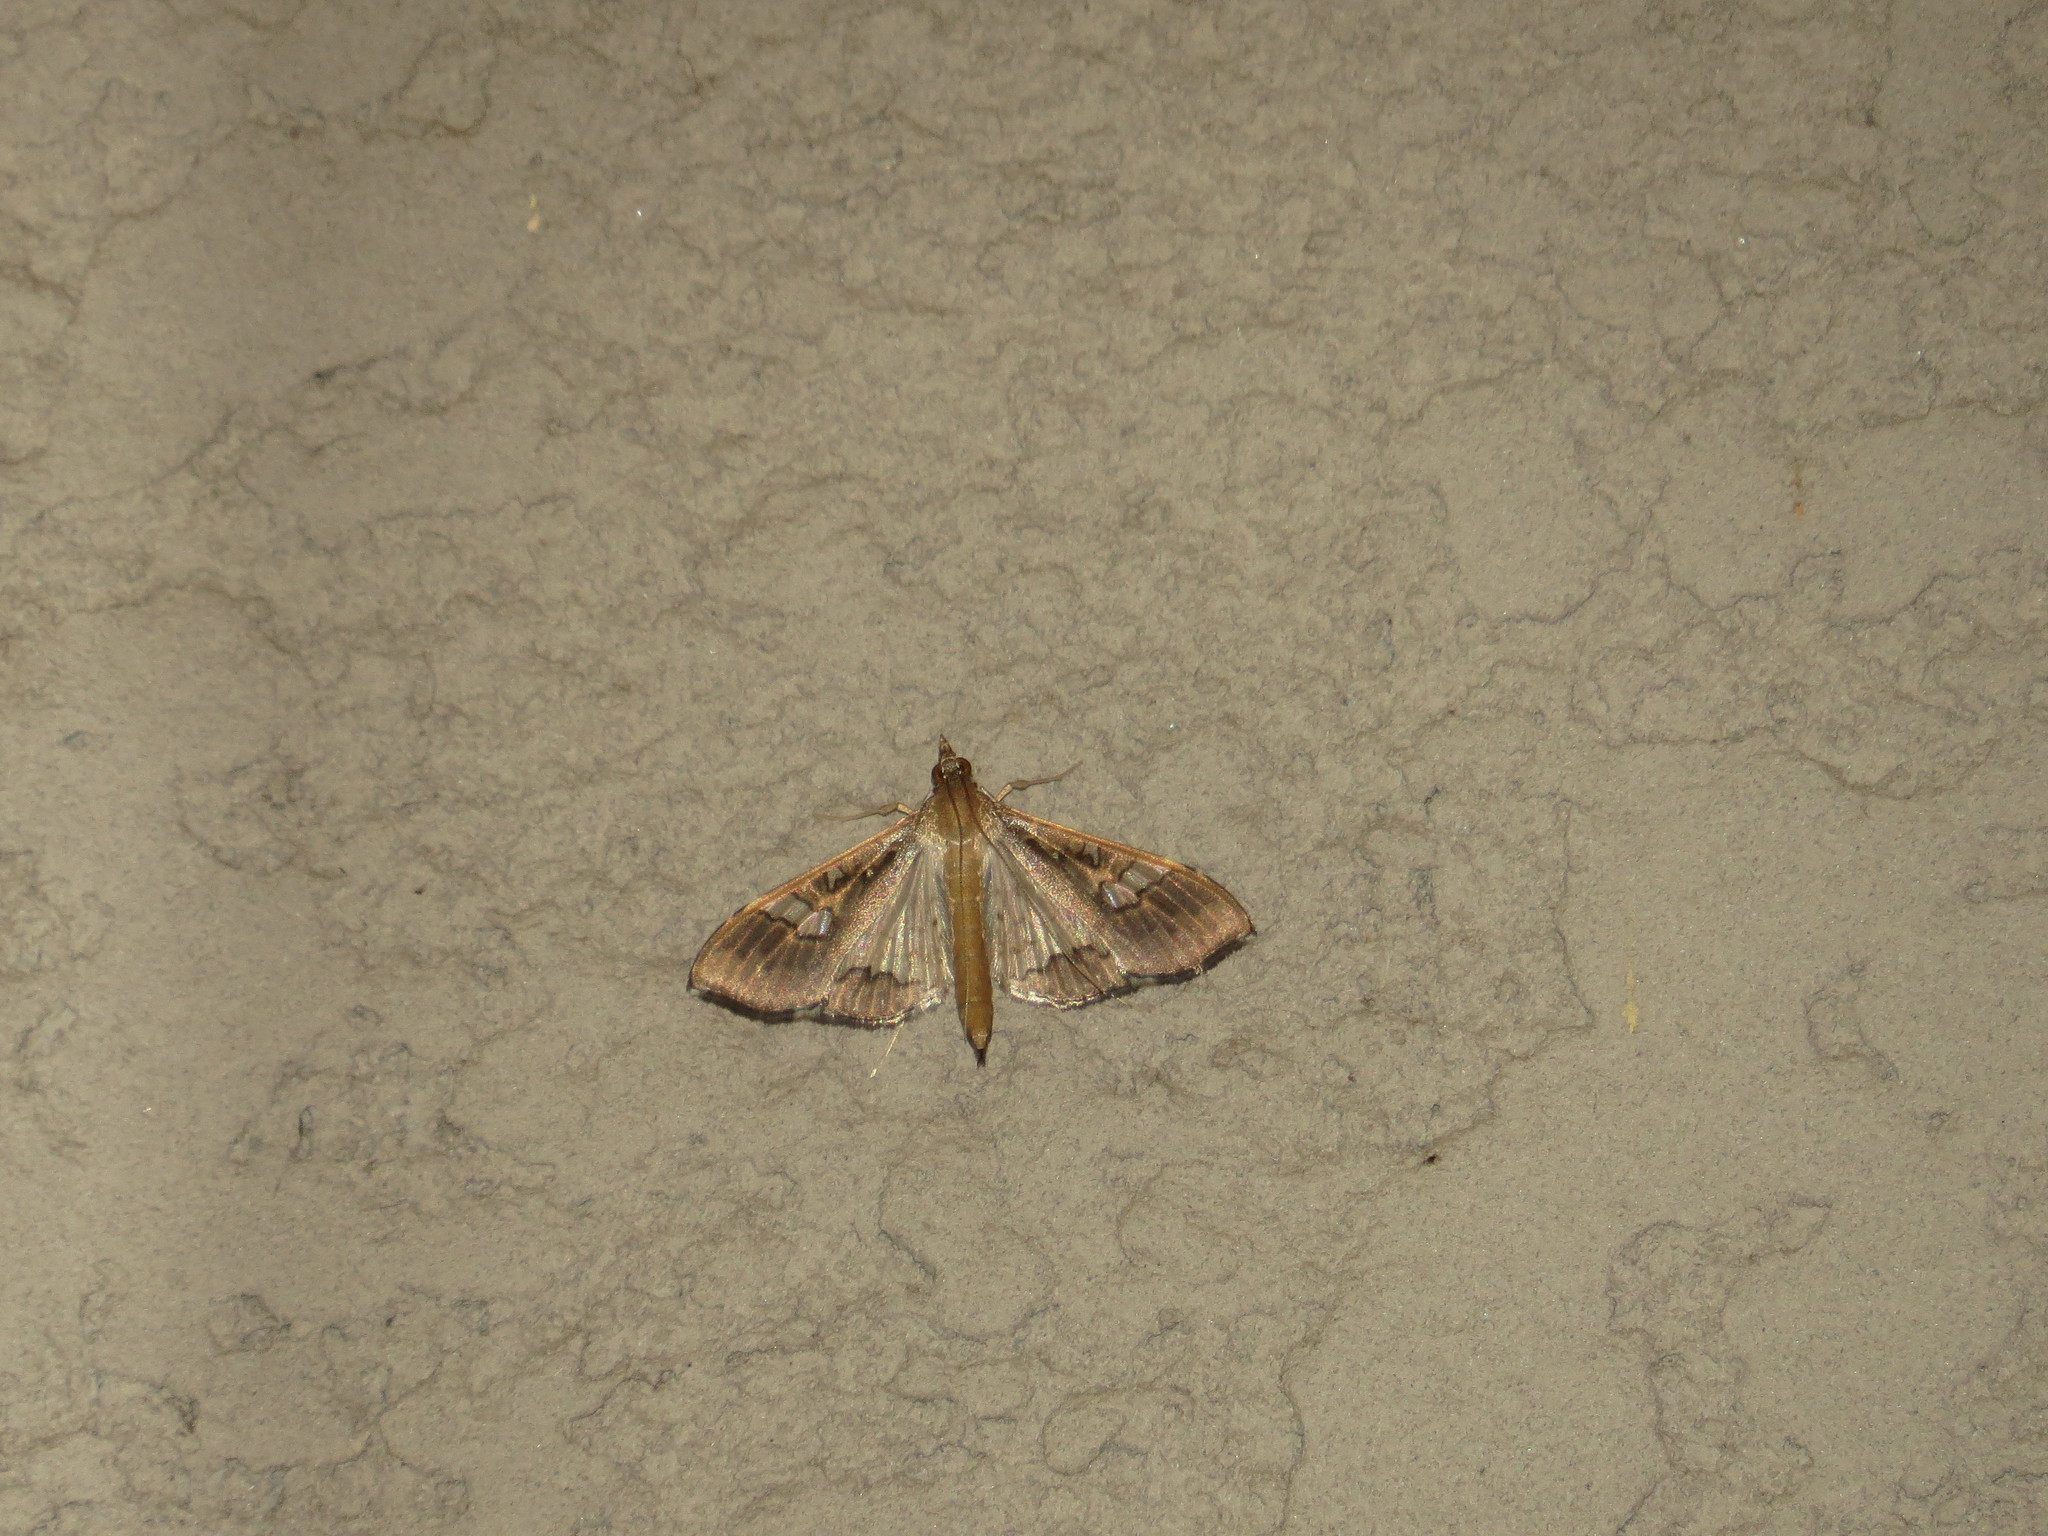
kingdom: Animalia
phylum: Arthropoda
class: Insecta
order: Lepidoptera
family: Crambidae
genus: Maruca
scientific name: Maruca vitrata
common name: Maruca pod borer
